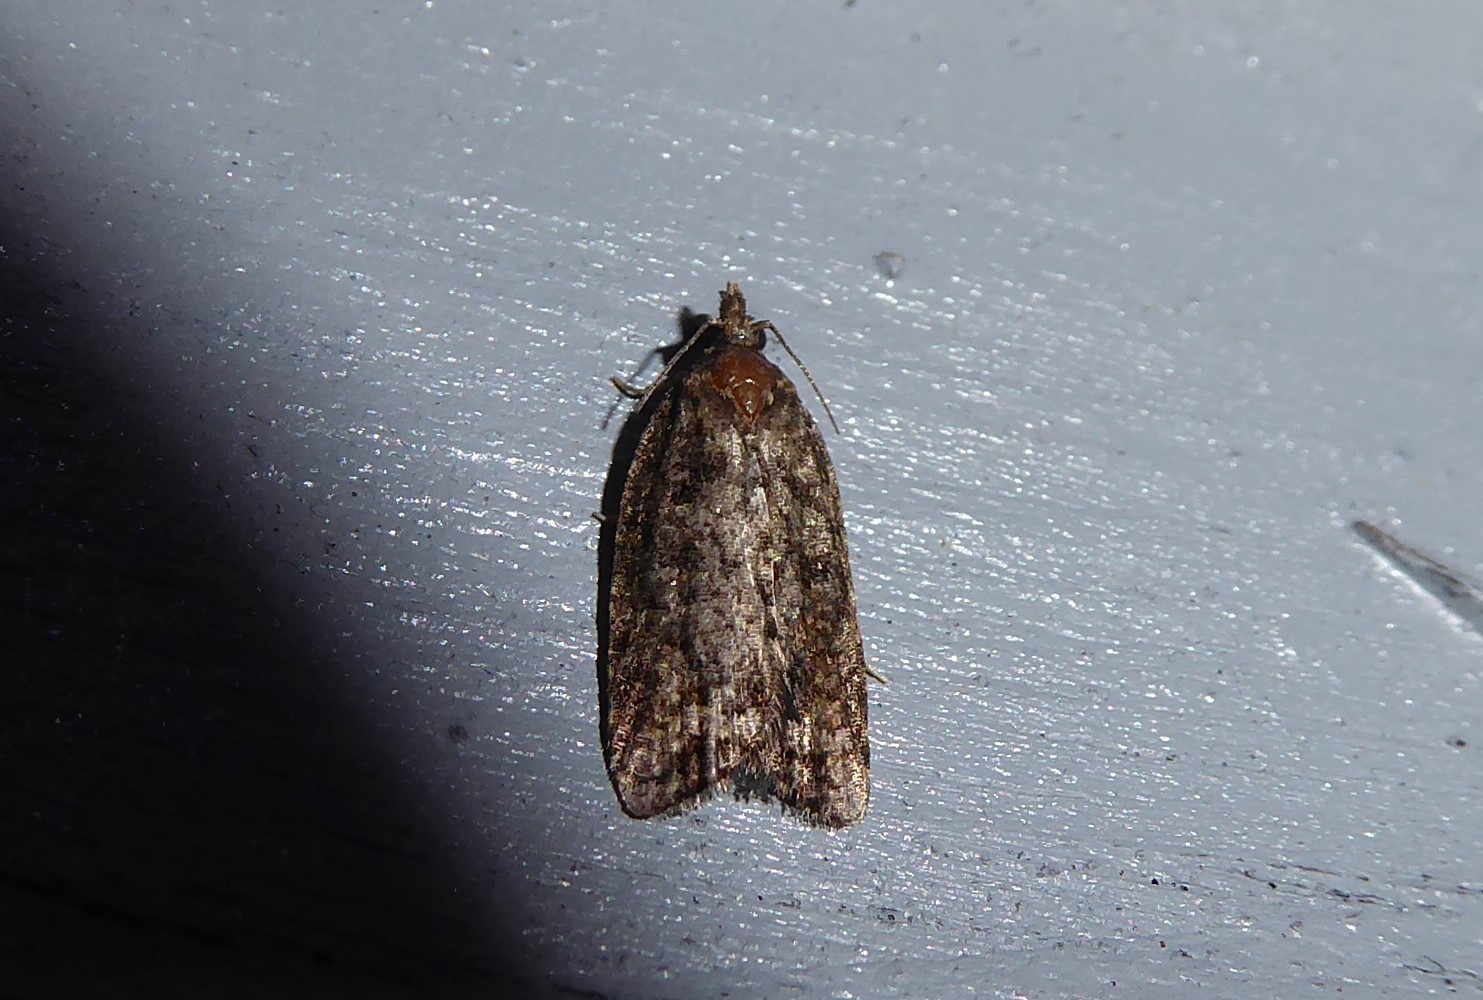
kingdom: Animalia
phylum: Arthropoda
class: Insecta
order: Lepidoptera
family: Tortricidae
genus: Capua
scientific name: Capua semiferana
